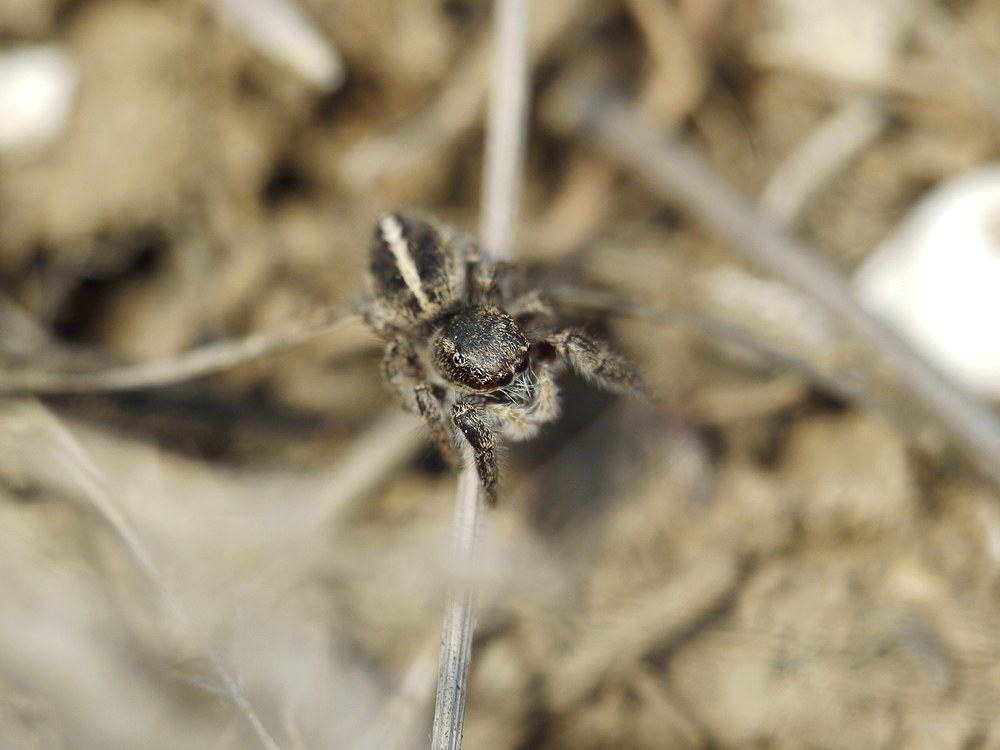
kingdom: Animalia
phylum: Arthropoda
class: Arachnida
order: Araneae
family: Salticidae
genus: Pellenes
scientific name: Pellenes seriatus
